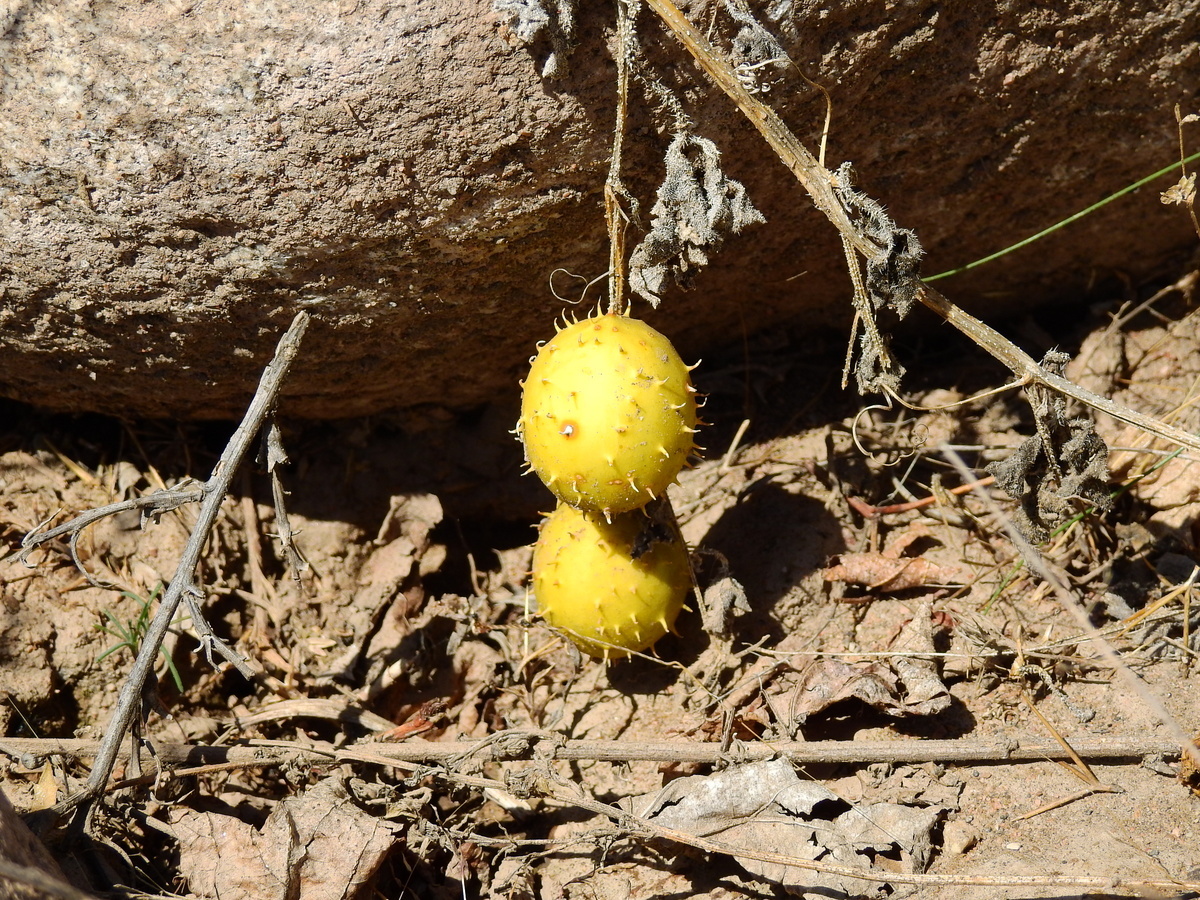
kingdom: Plantae
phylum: Tracheophyta
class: Magnoliopsida
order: Cucurbitales
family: Cucurbitaceae
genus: Cucumis
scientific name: Cucumis myriocarpus
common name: Gooseberry cucumber
